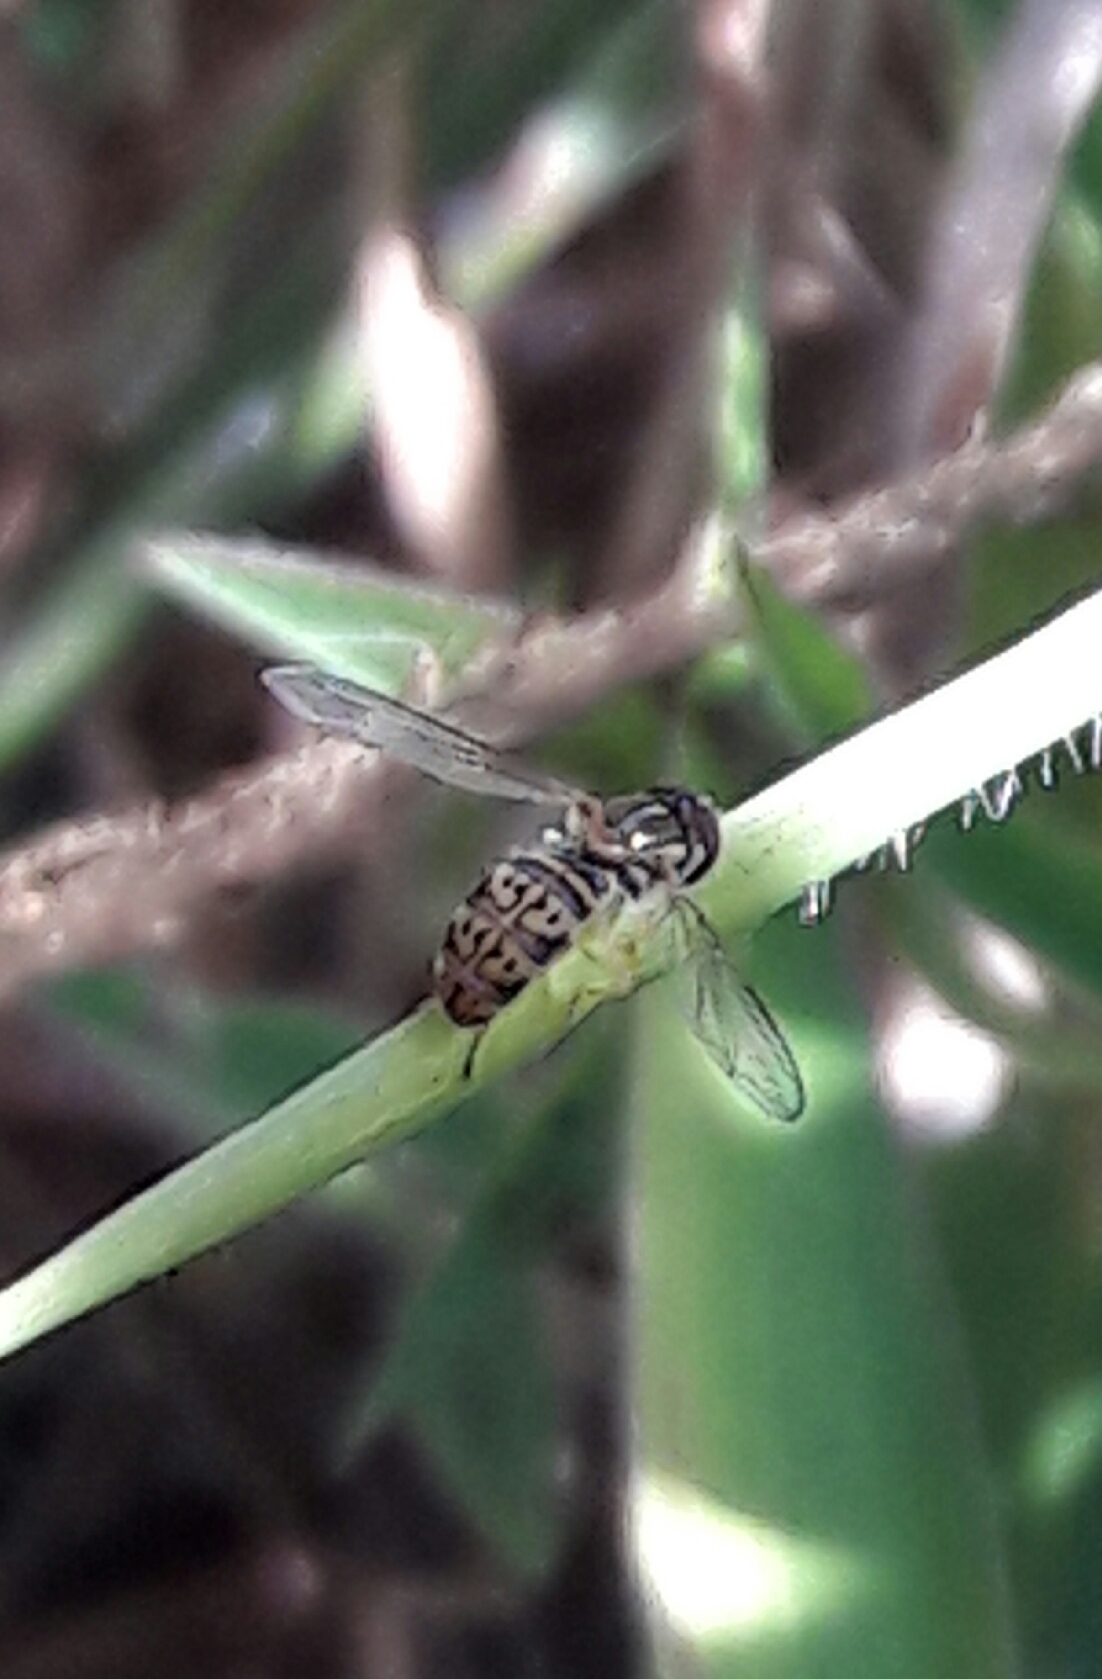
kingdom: Animalia
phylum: Arthropoda
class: Insecta
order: Diptera
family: Syrphidae
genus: Toxomerus
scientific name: Toxomerus
